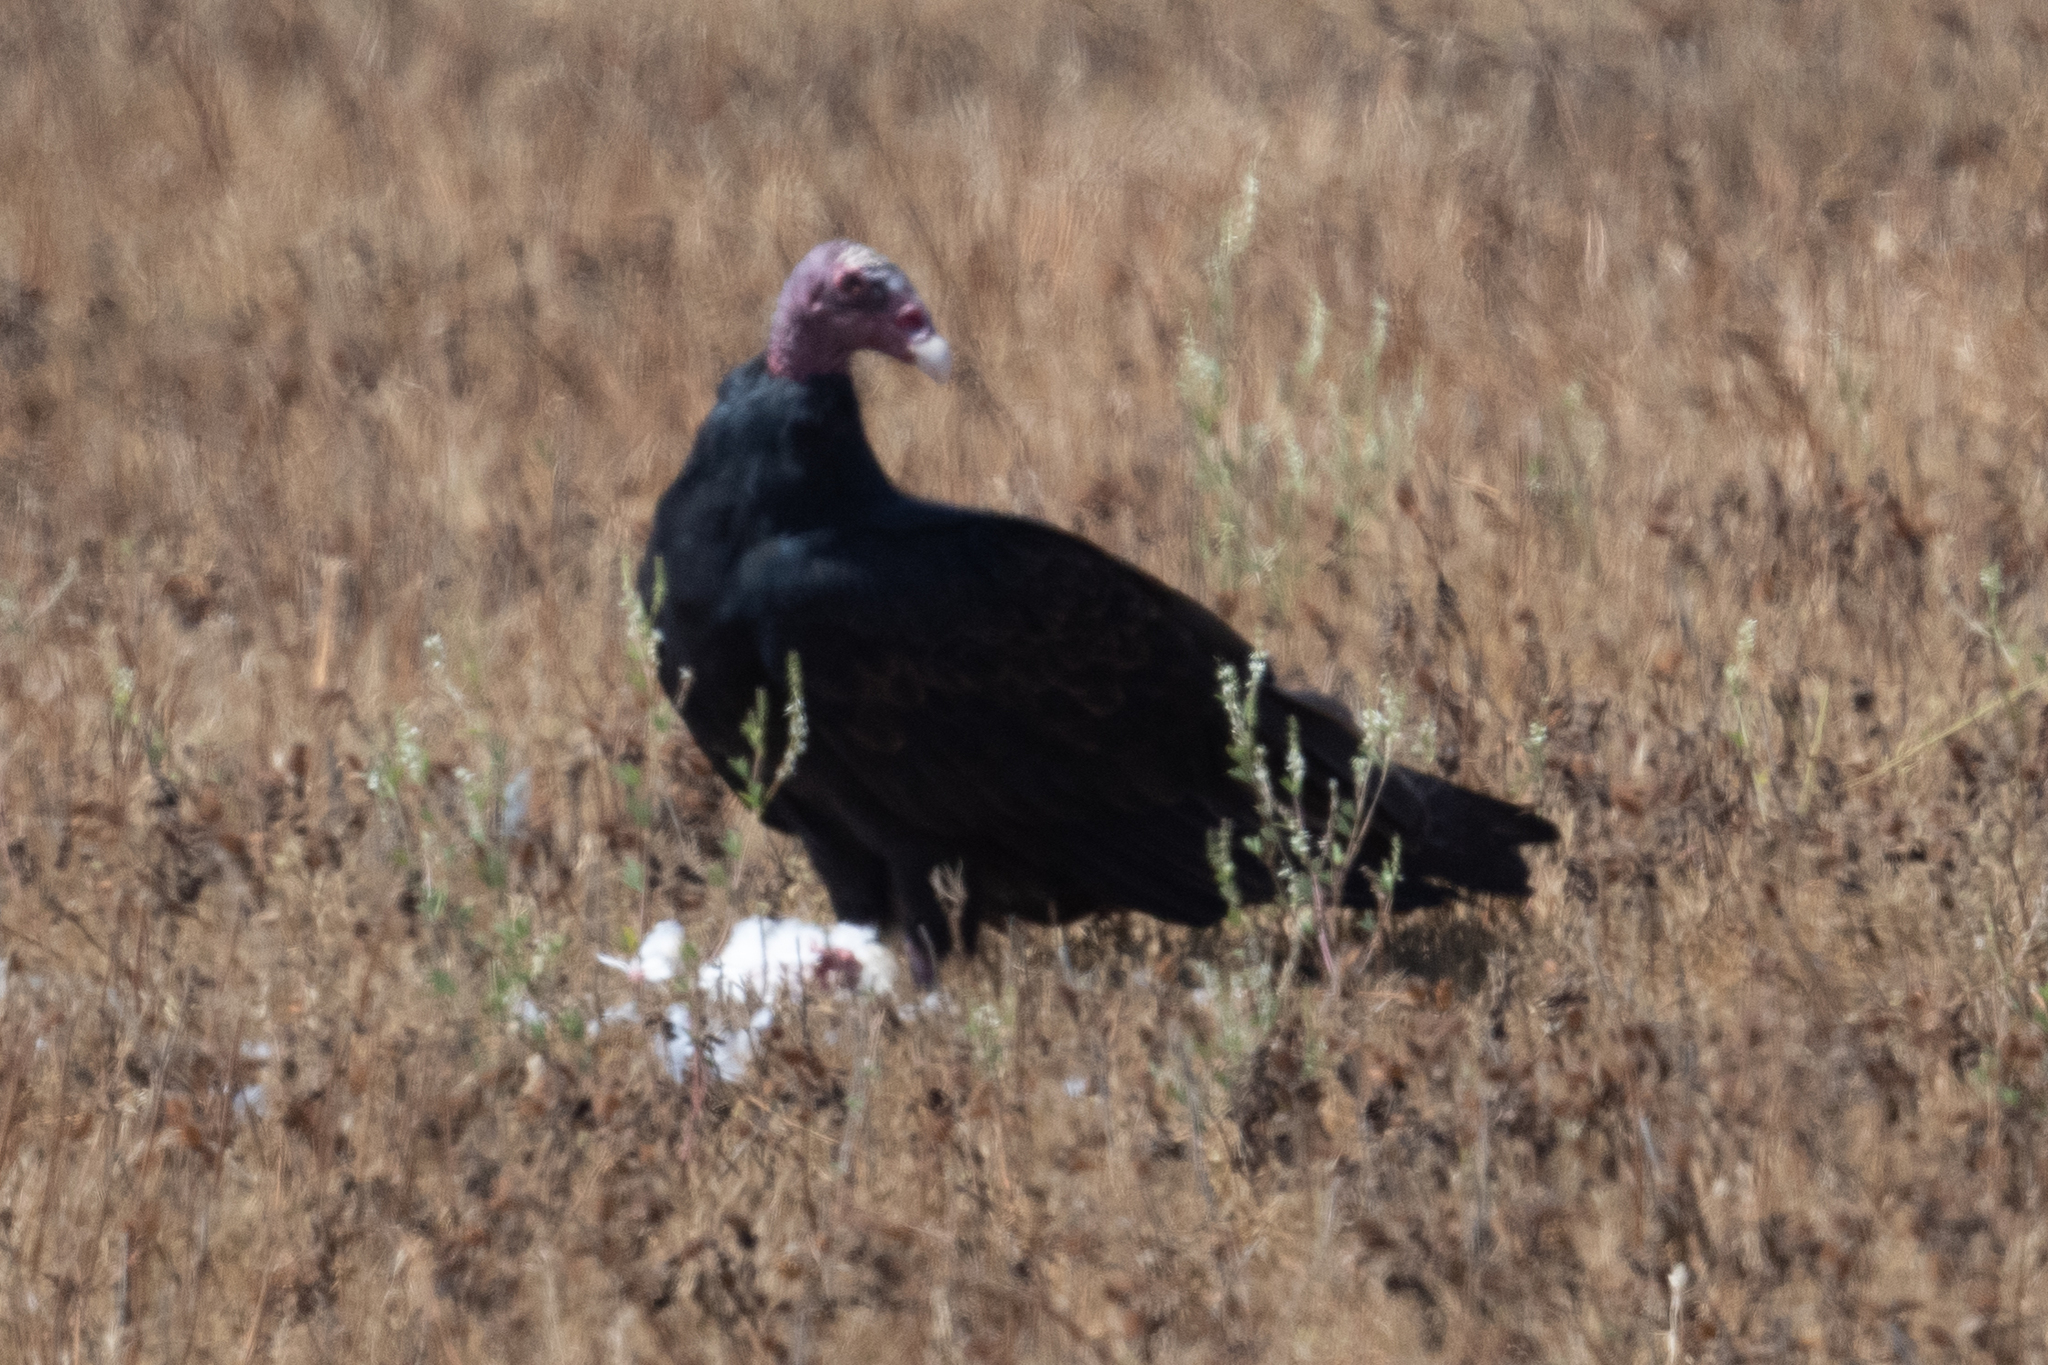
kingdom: Animalia
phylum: Chordata
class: Aves
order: Accipitriformes
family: Cathartidae
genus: Cathartes
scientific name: Cathartes aura
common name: Turkey vulture
